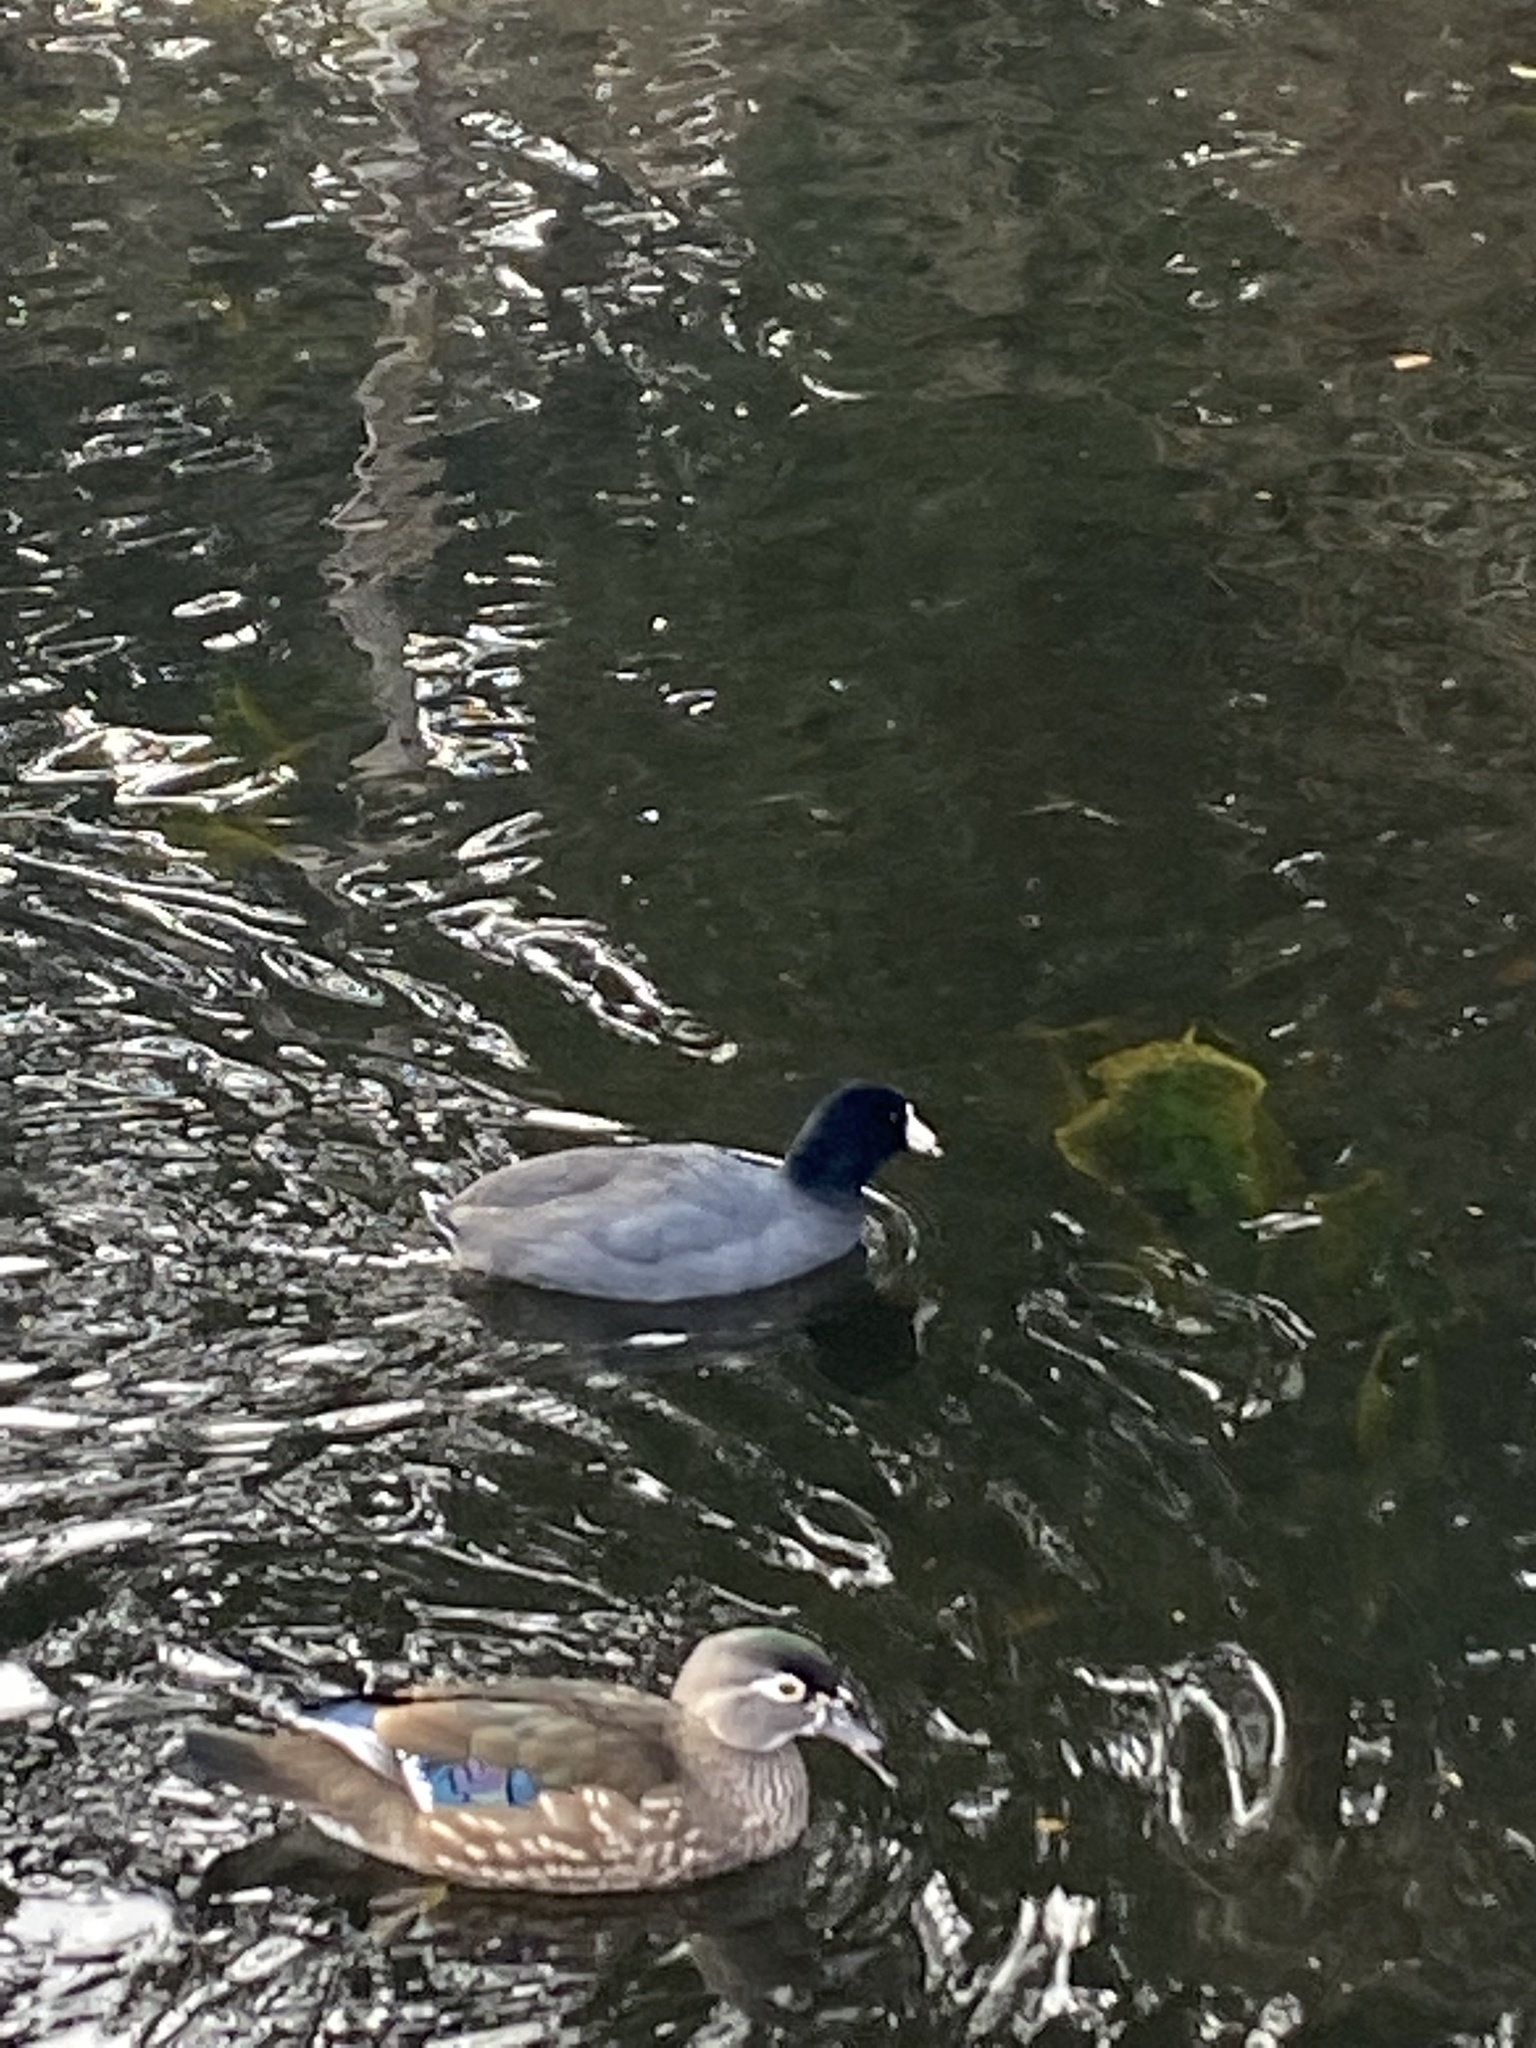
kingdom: Animalia
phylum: Chordata
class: Aves
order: Gruiformes
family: Rallidae
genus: Fulica
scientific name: Fulica americana
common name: American coot
